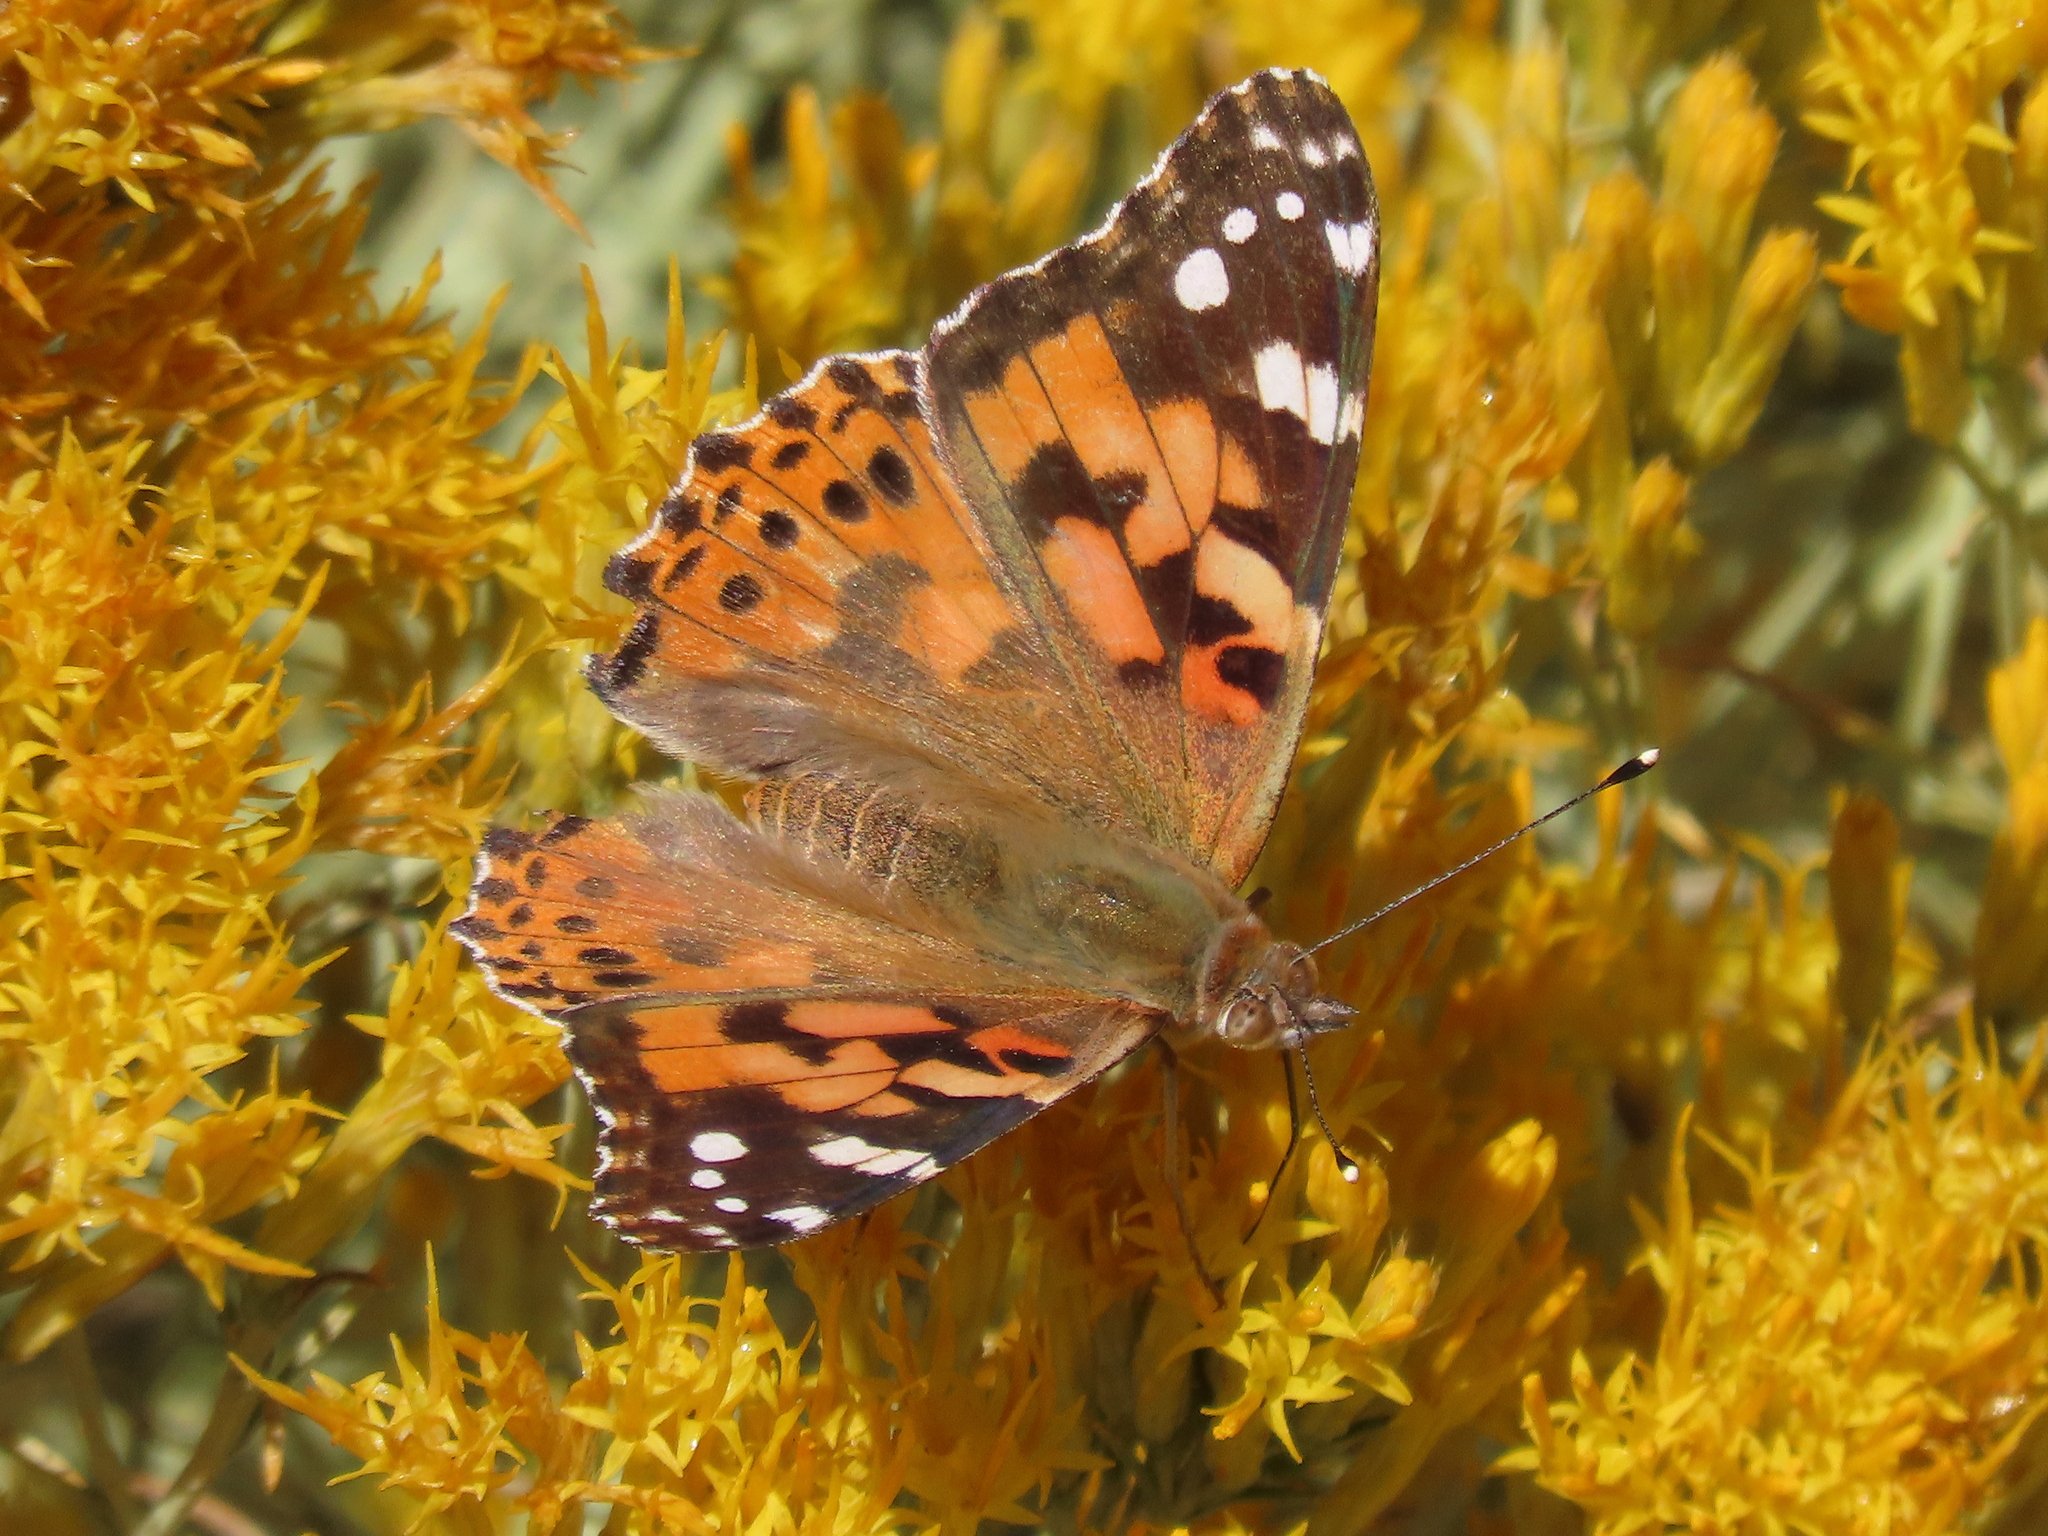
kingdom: Animalia
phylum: Arthropoda
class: Insecta
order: Lepidoptera
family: Nymphalidae
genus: Vanessa
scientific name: Vanessa cardui
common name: Painted lady
